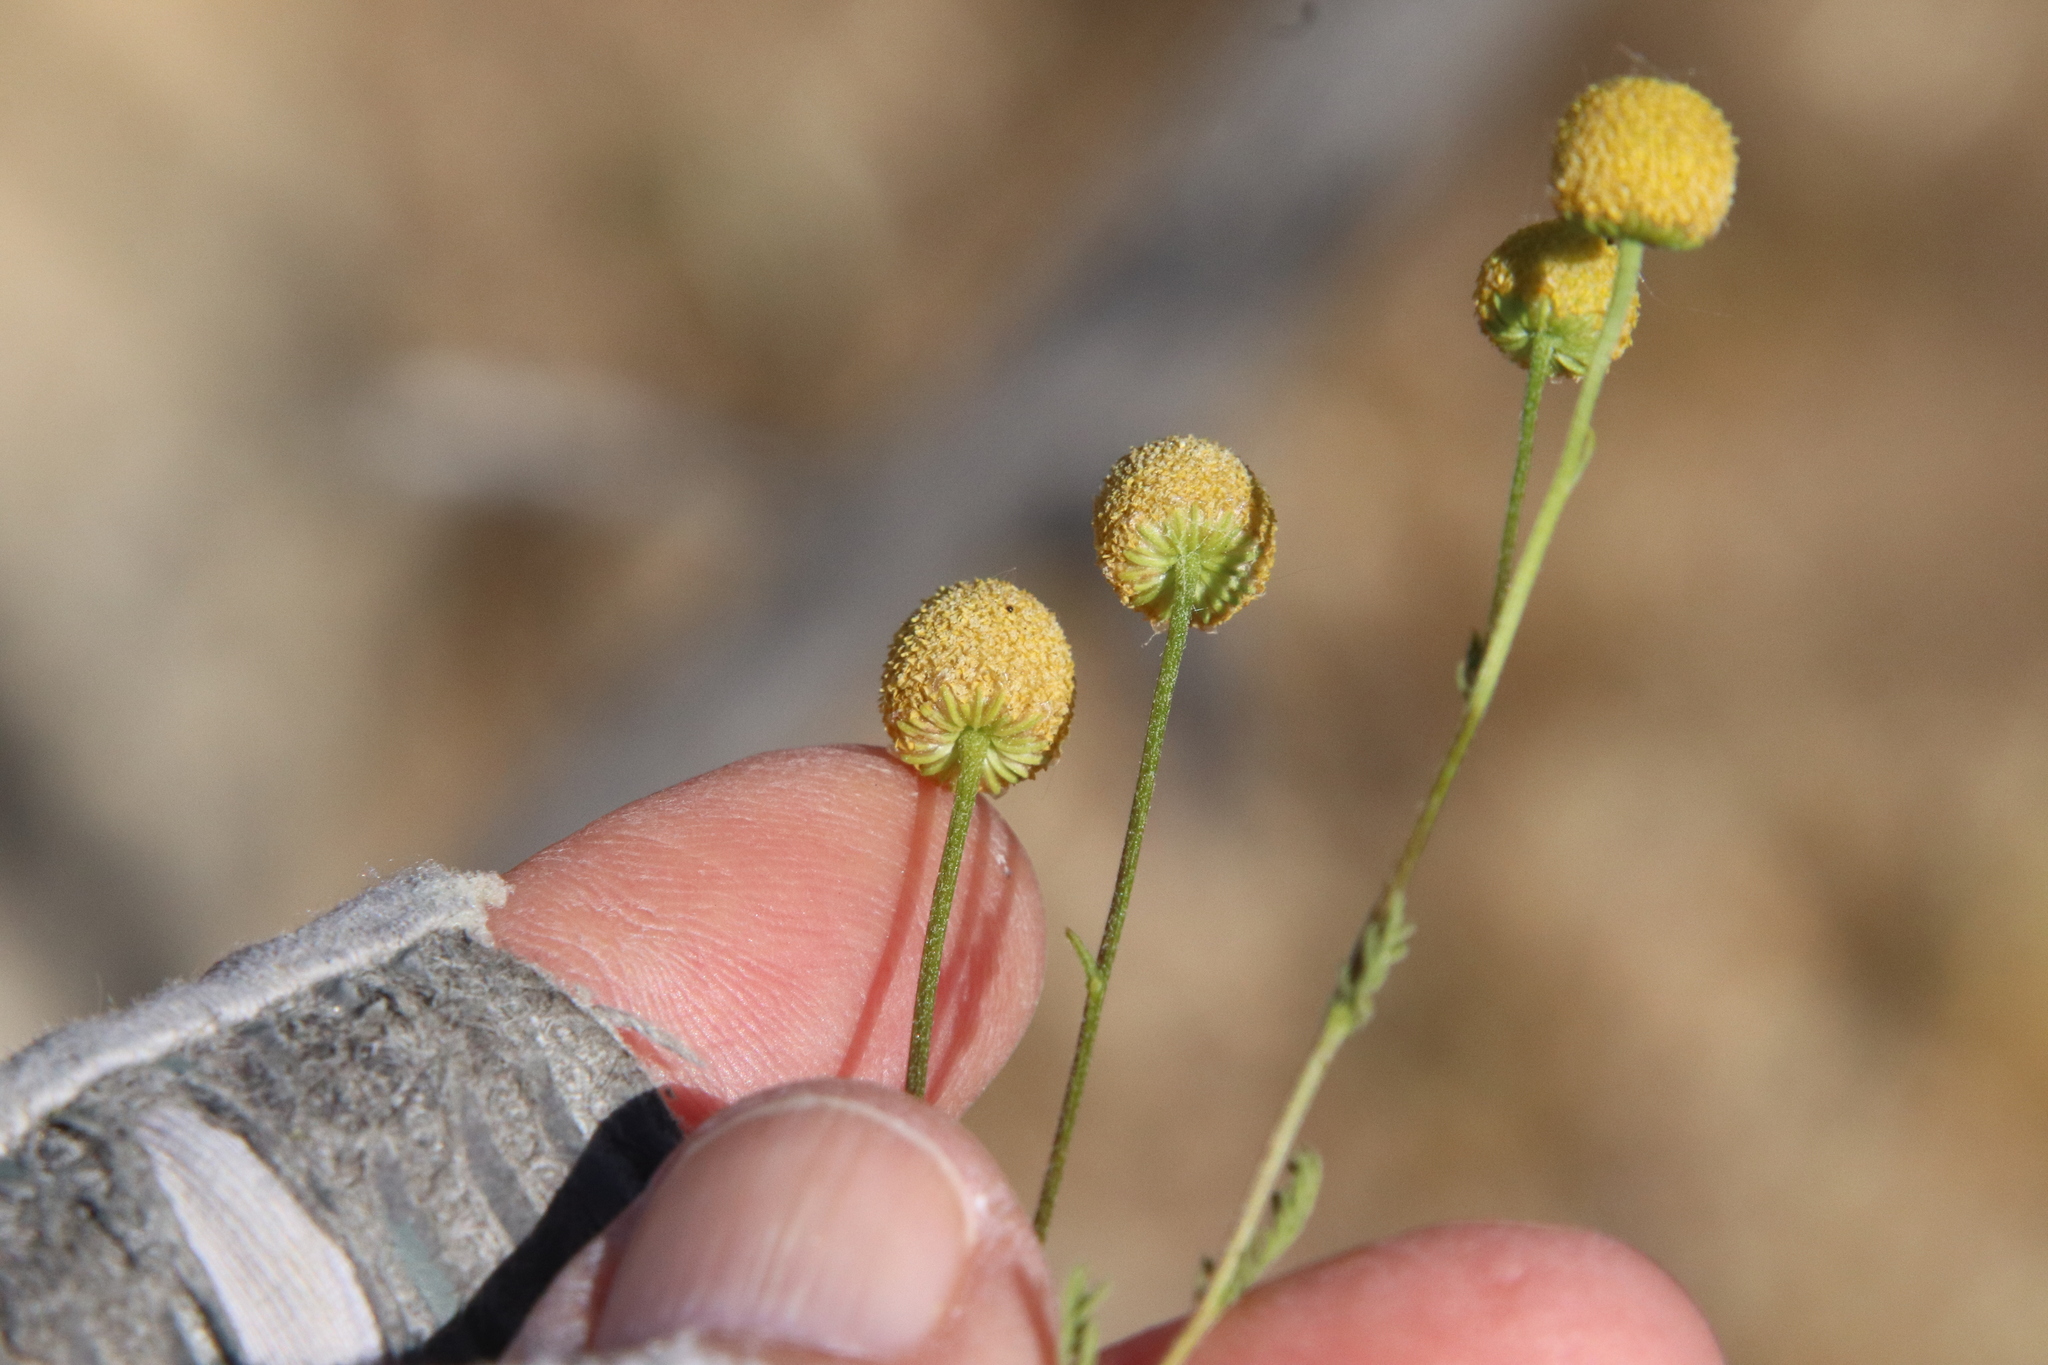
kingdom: Plantae
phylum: Tracheophyta
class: Magnoliopsida
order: Asterales
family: Asteraceae
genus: Oncosiphon
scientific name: Oncosiphon pilulifer
